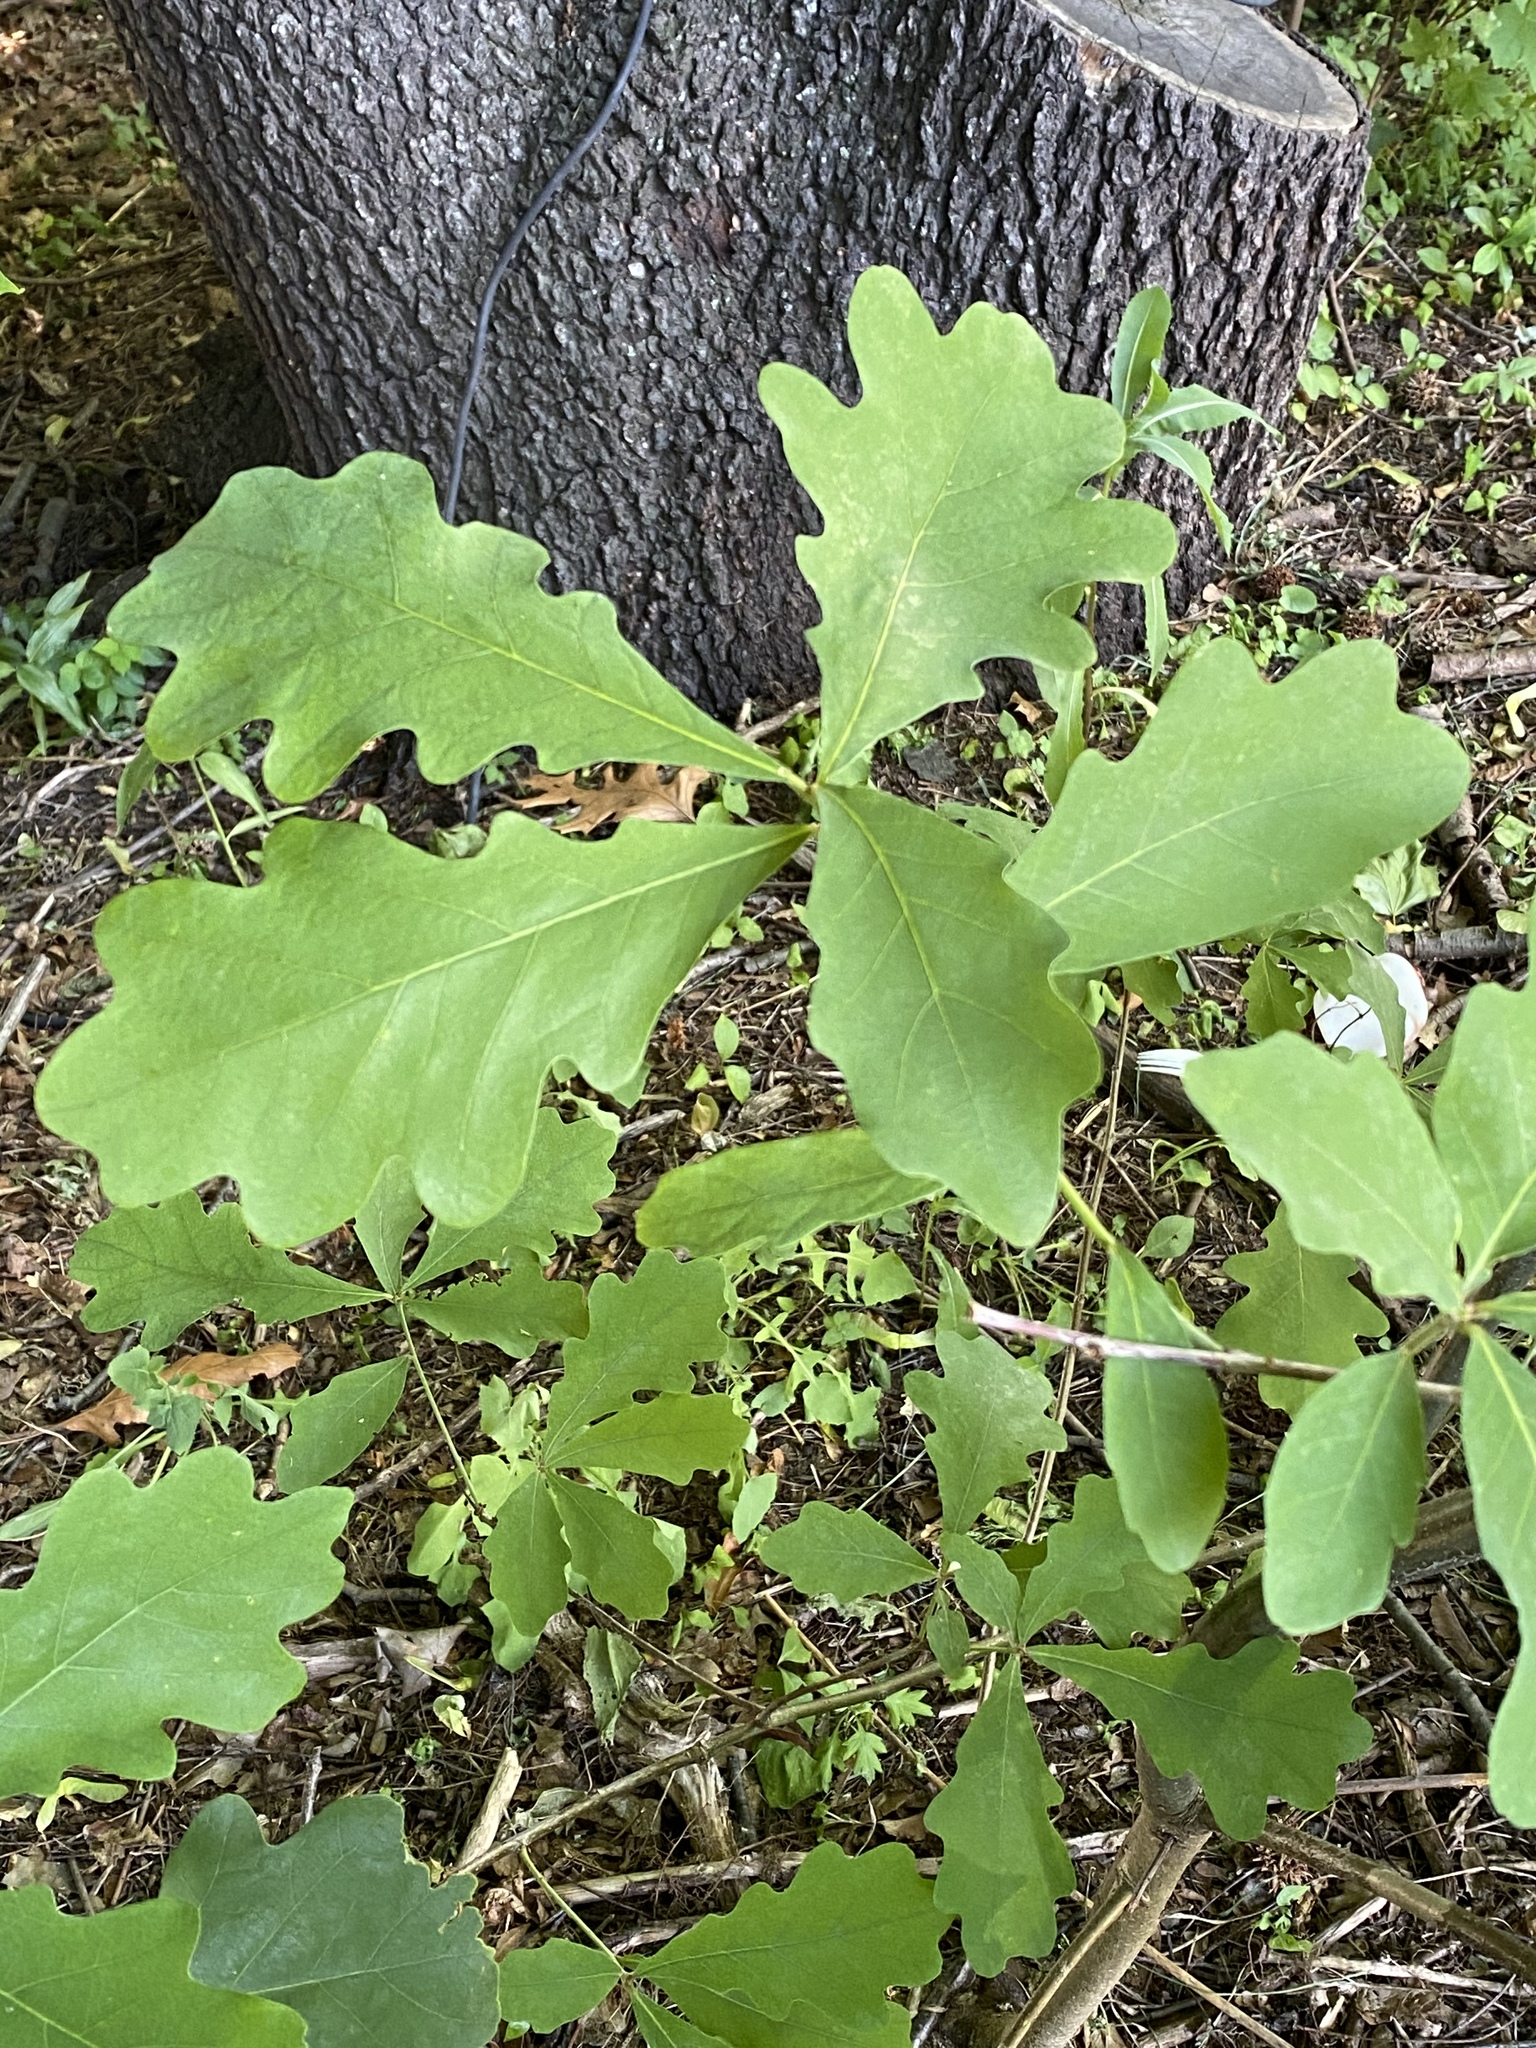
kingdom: Plantae
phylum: Tracheophyta
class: Magnoliopsida
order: Fagales
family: Fagaceae
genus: Quercus
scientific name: Quercus alba
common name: White oak
